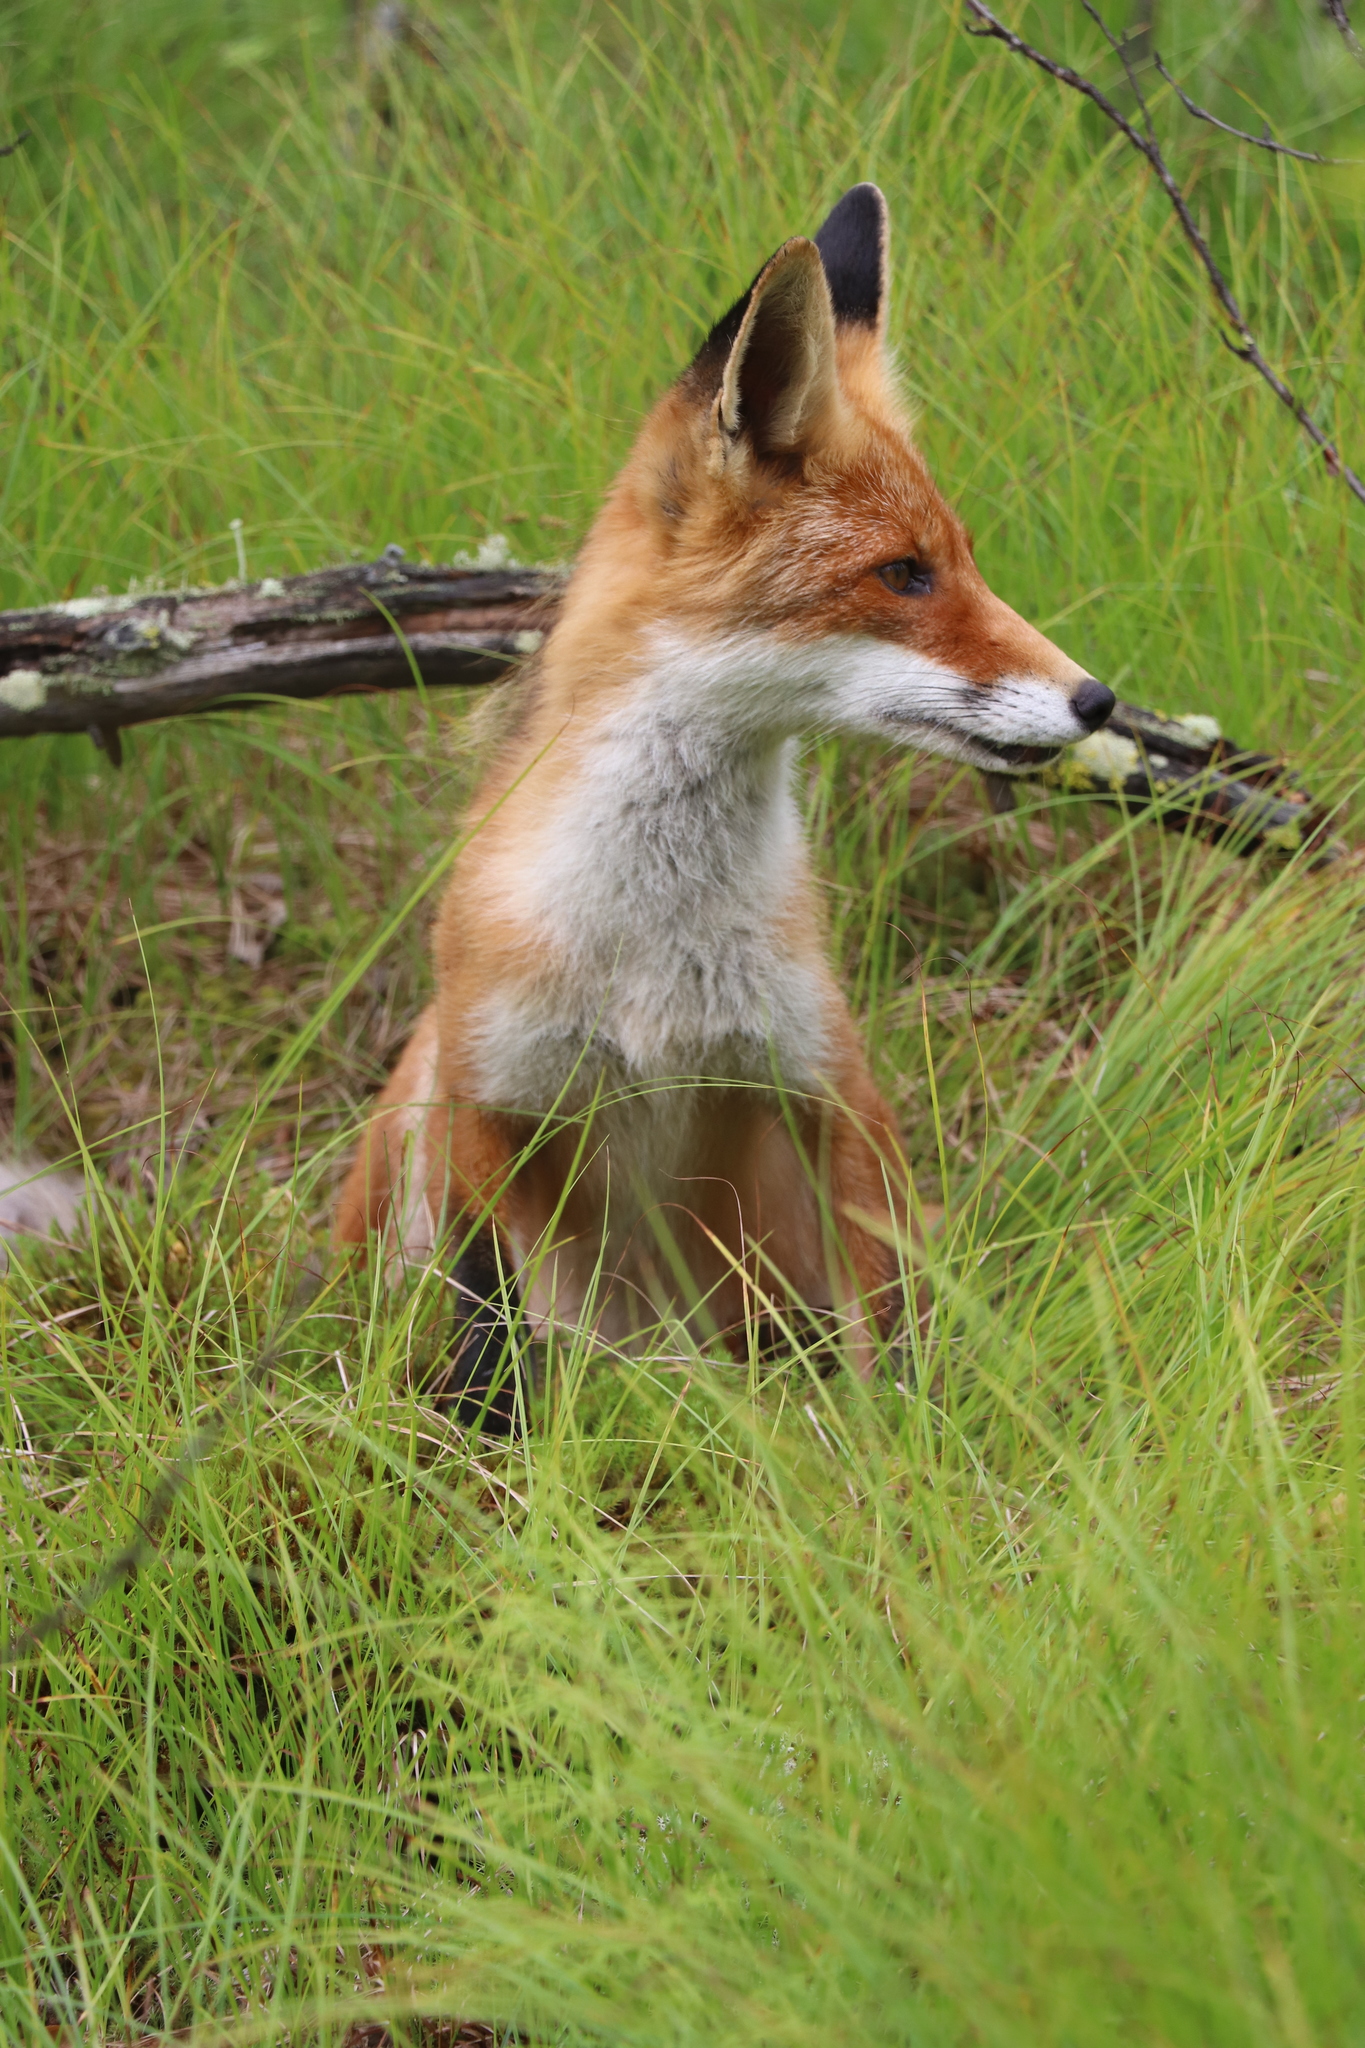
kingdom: Animalia
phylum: Chordata
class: Mammalia
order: Carnivora
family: Canidae
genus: Vulpes
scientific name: Vulpes vulpes
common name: Red fox
